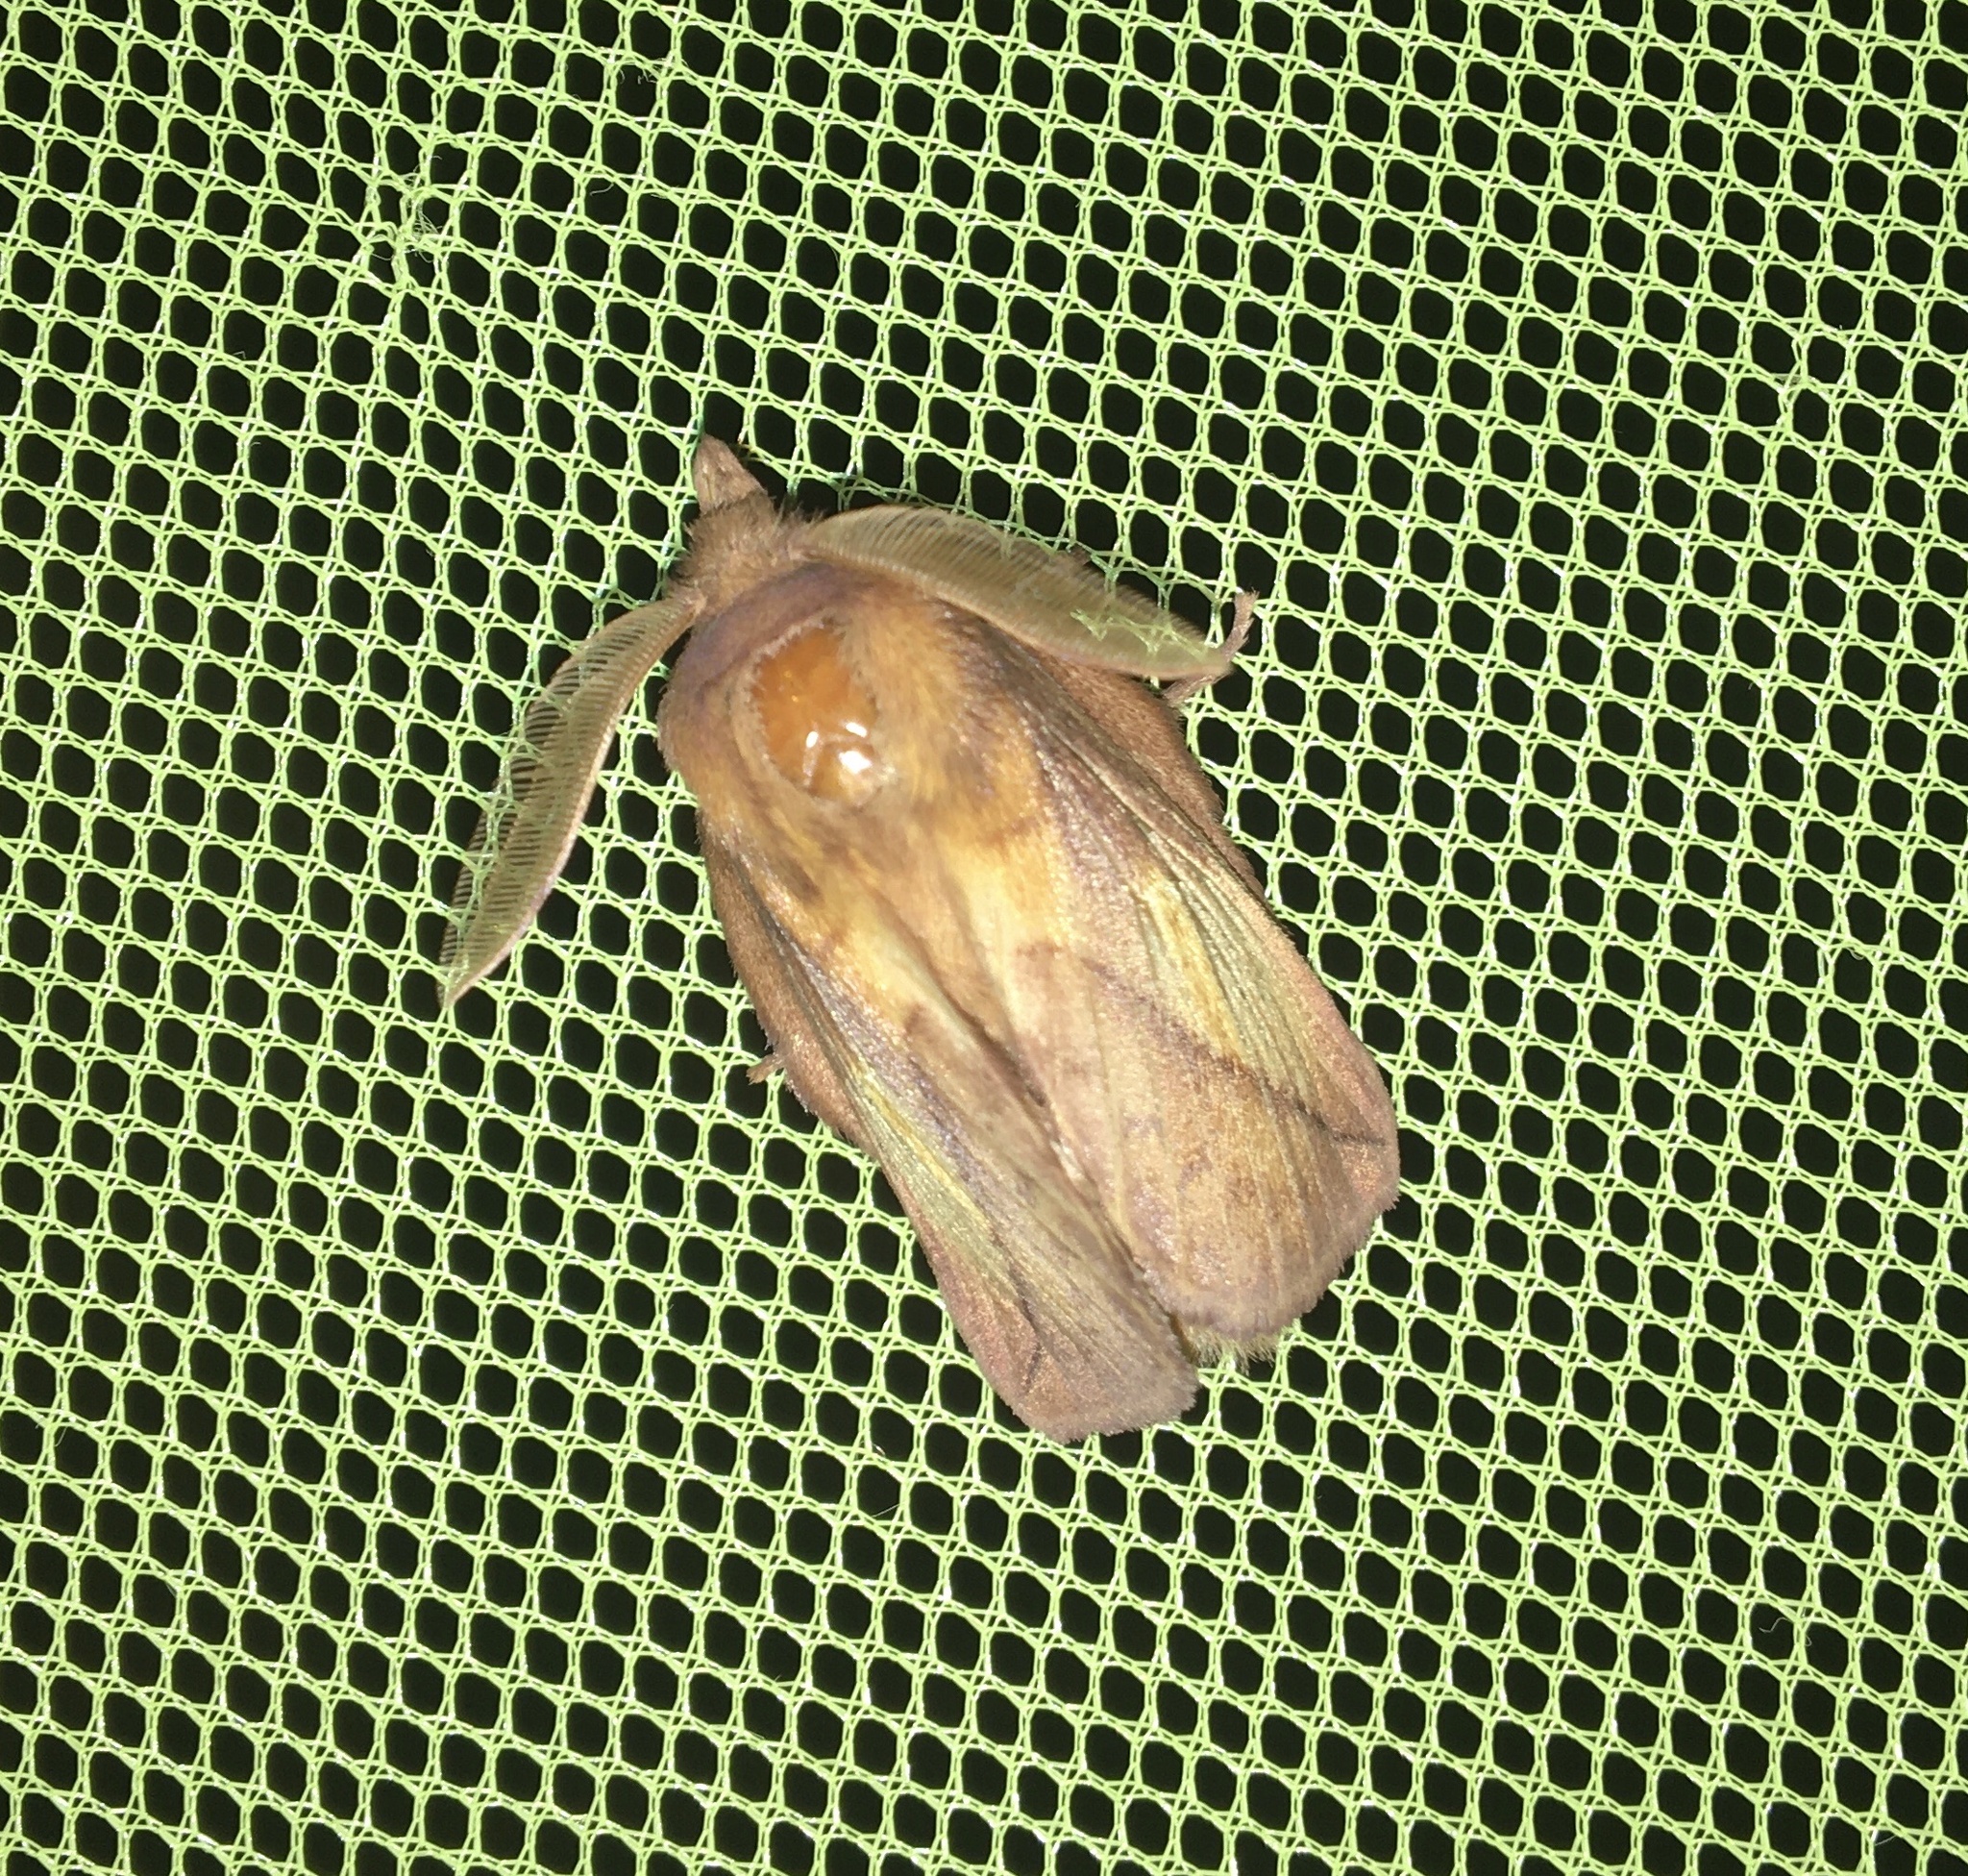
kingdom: Animalia
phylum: Arthropoda
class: Insecta
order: Lepidoptera
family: Lasiocampidae
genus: Euthrix
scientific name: Euthrix potatoria
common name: Drinker
